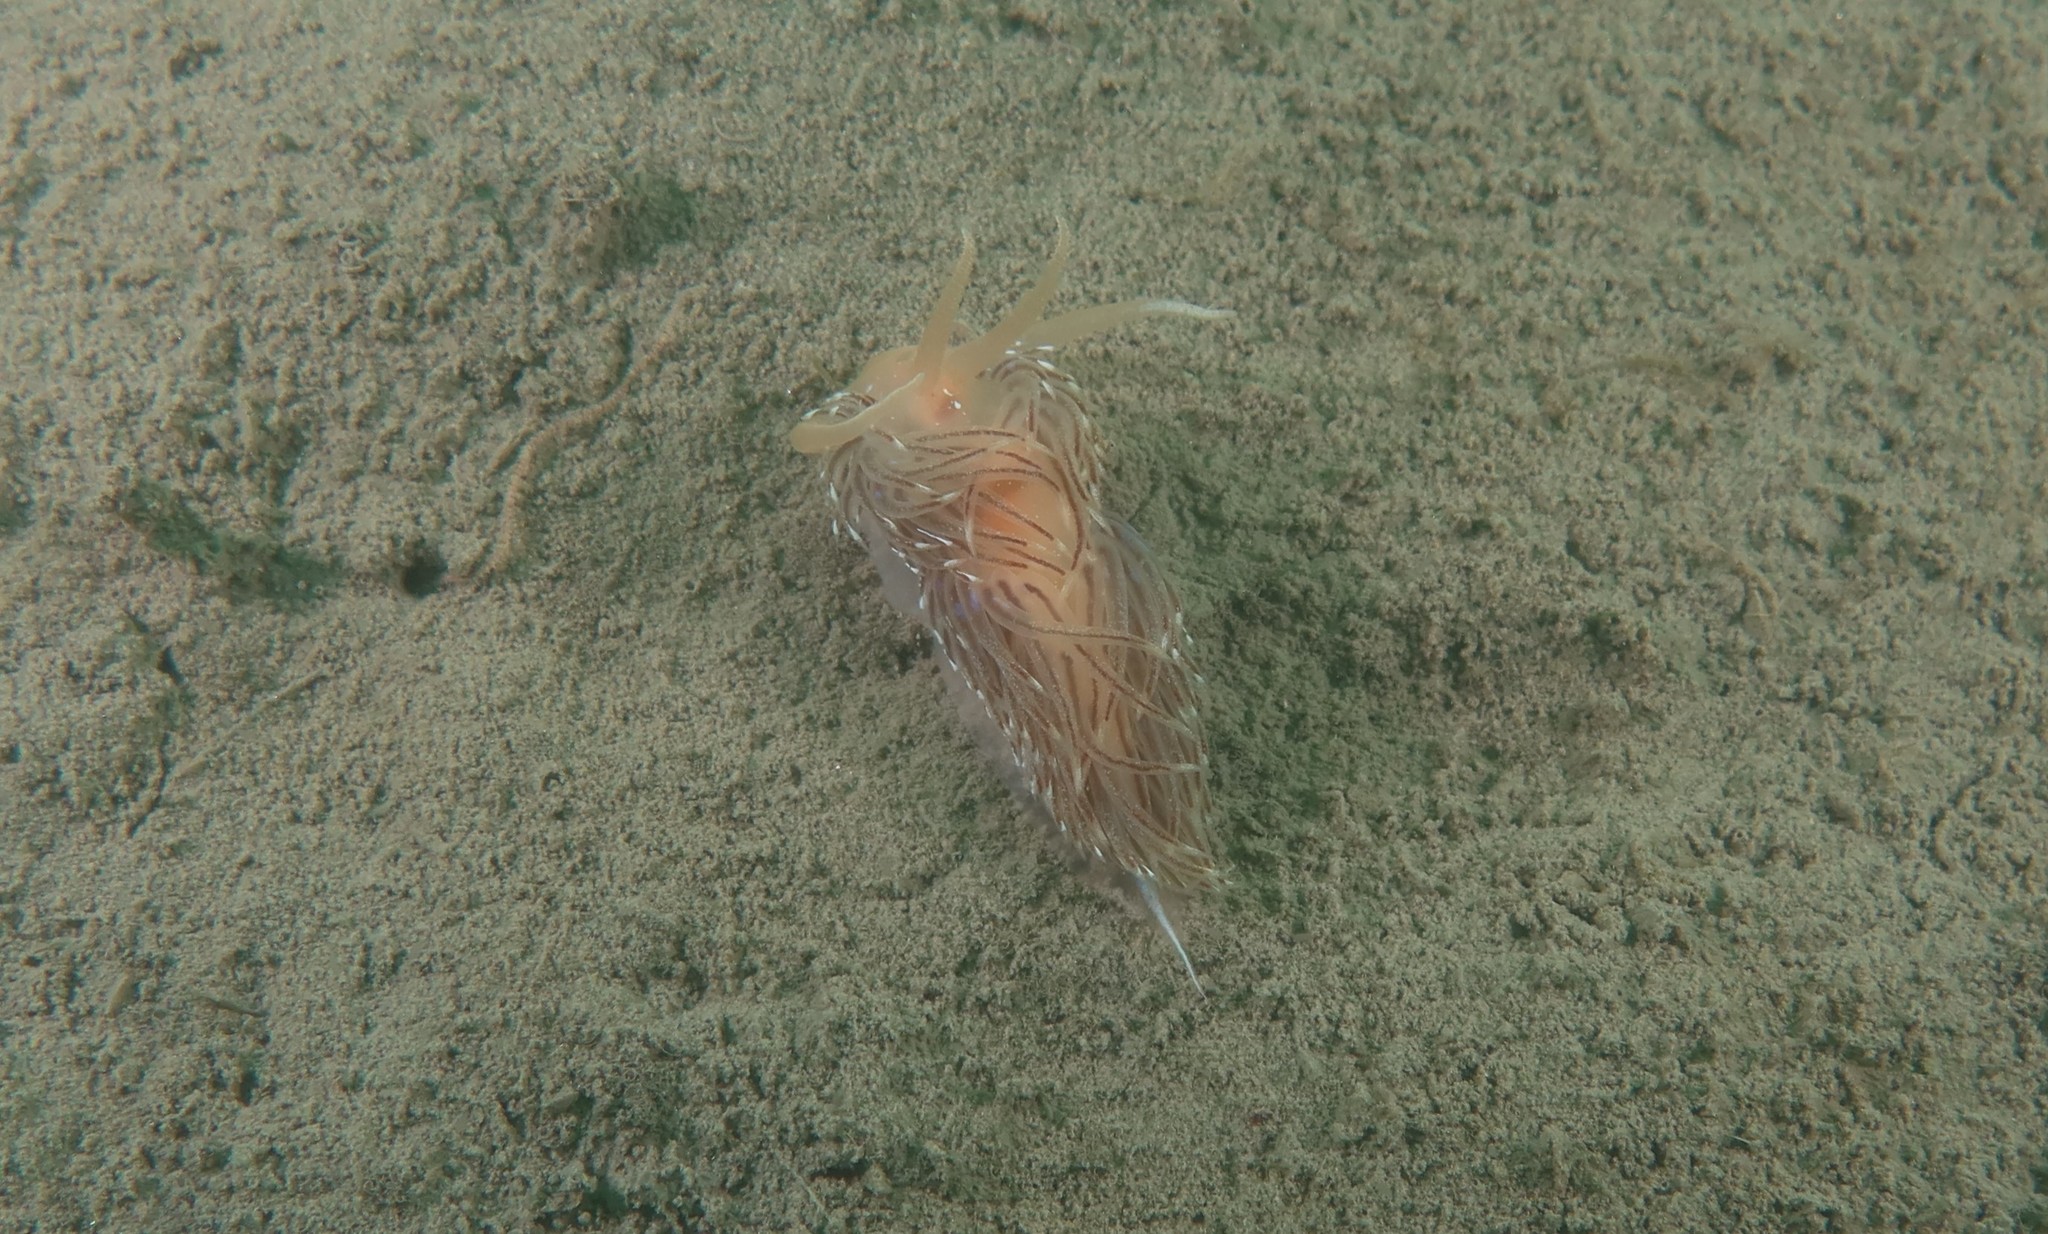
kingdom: Animalia
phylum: Mollusca
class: Gastropoda
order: Nudibranchia
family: Facelinidae
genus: Facelina
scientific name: Facelina vicina
